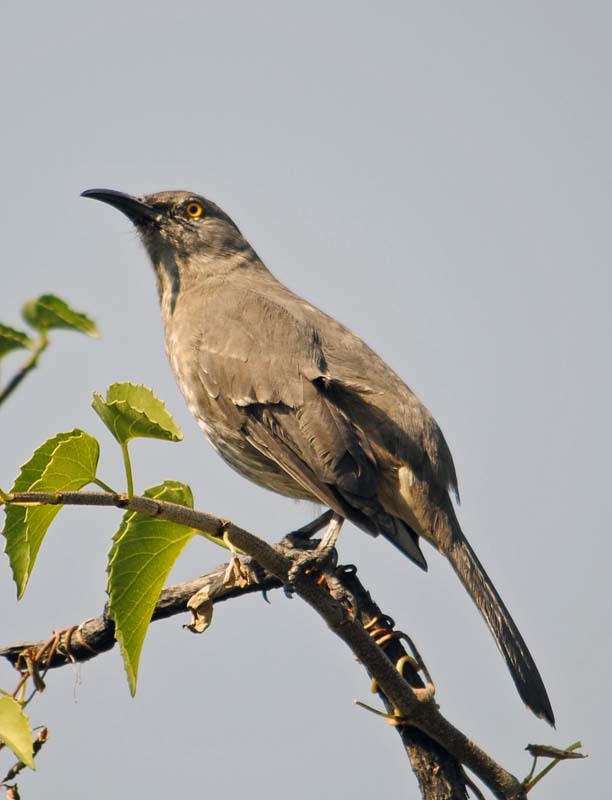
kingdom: Animalia
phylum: Chordata
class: Aves
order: Passeriformes
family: Mimidae
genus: Toxostoma
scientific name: Toxostoma curvirostre
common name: Curve-billed thrasher
